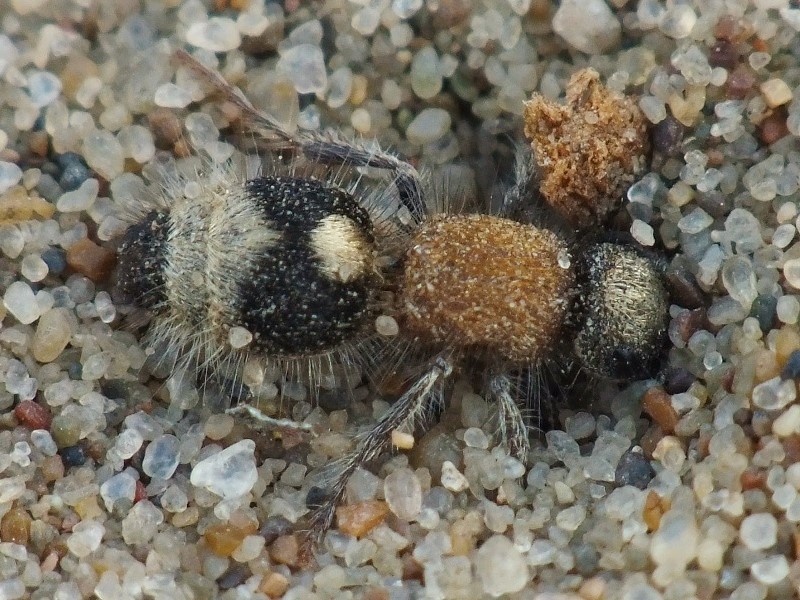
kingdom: Animalia
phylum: Arthropoda
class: Insecta
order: Hymenoptera
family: Mutillidae
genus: Nemka
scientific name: Nemka viduata
